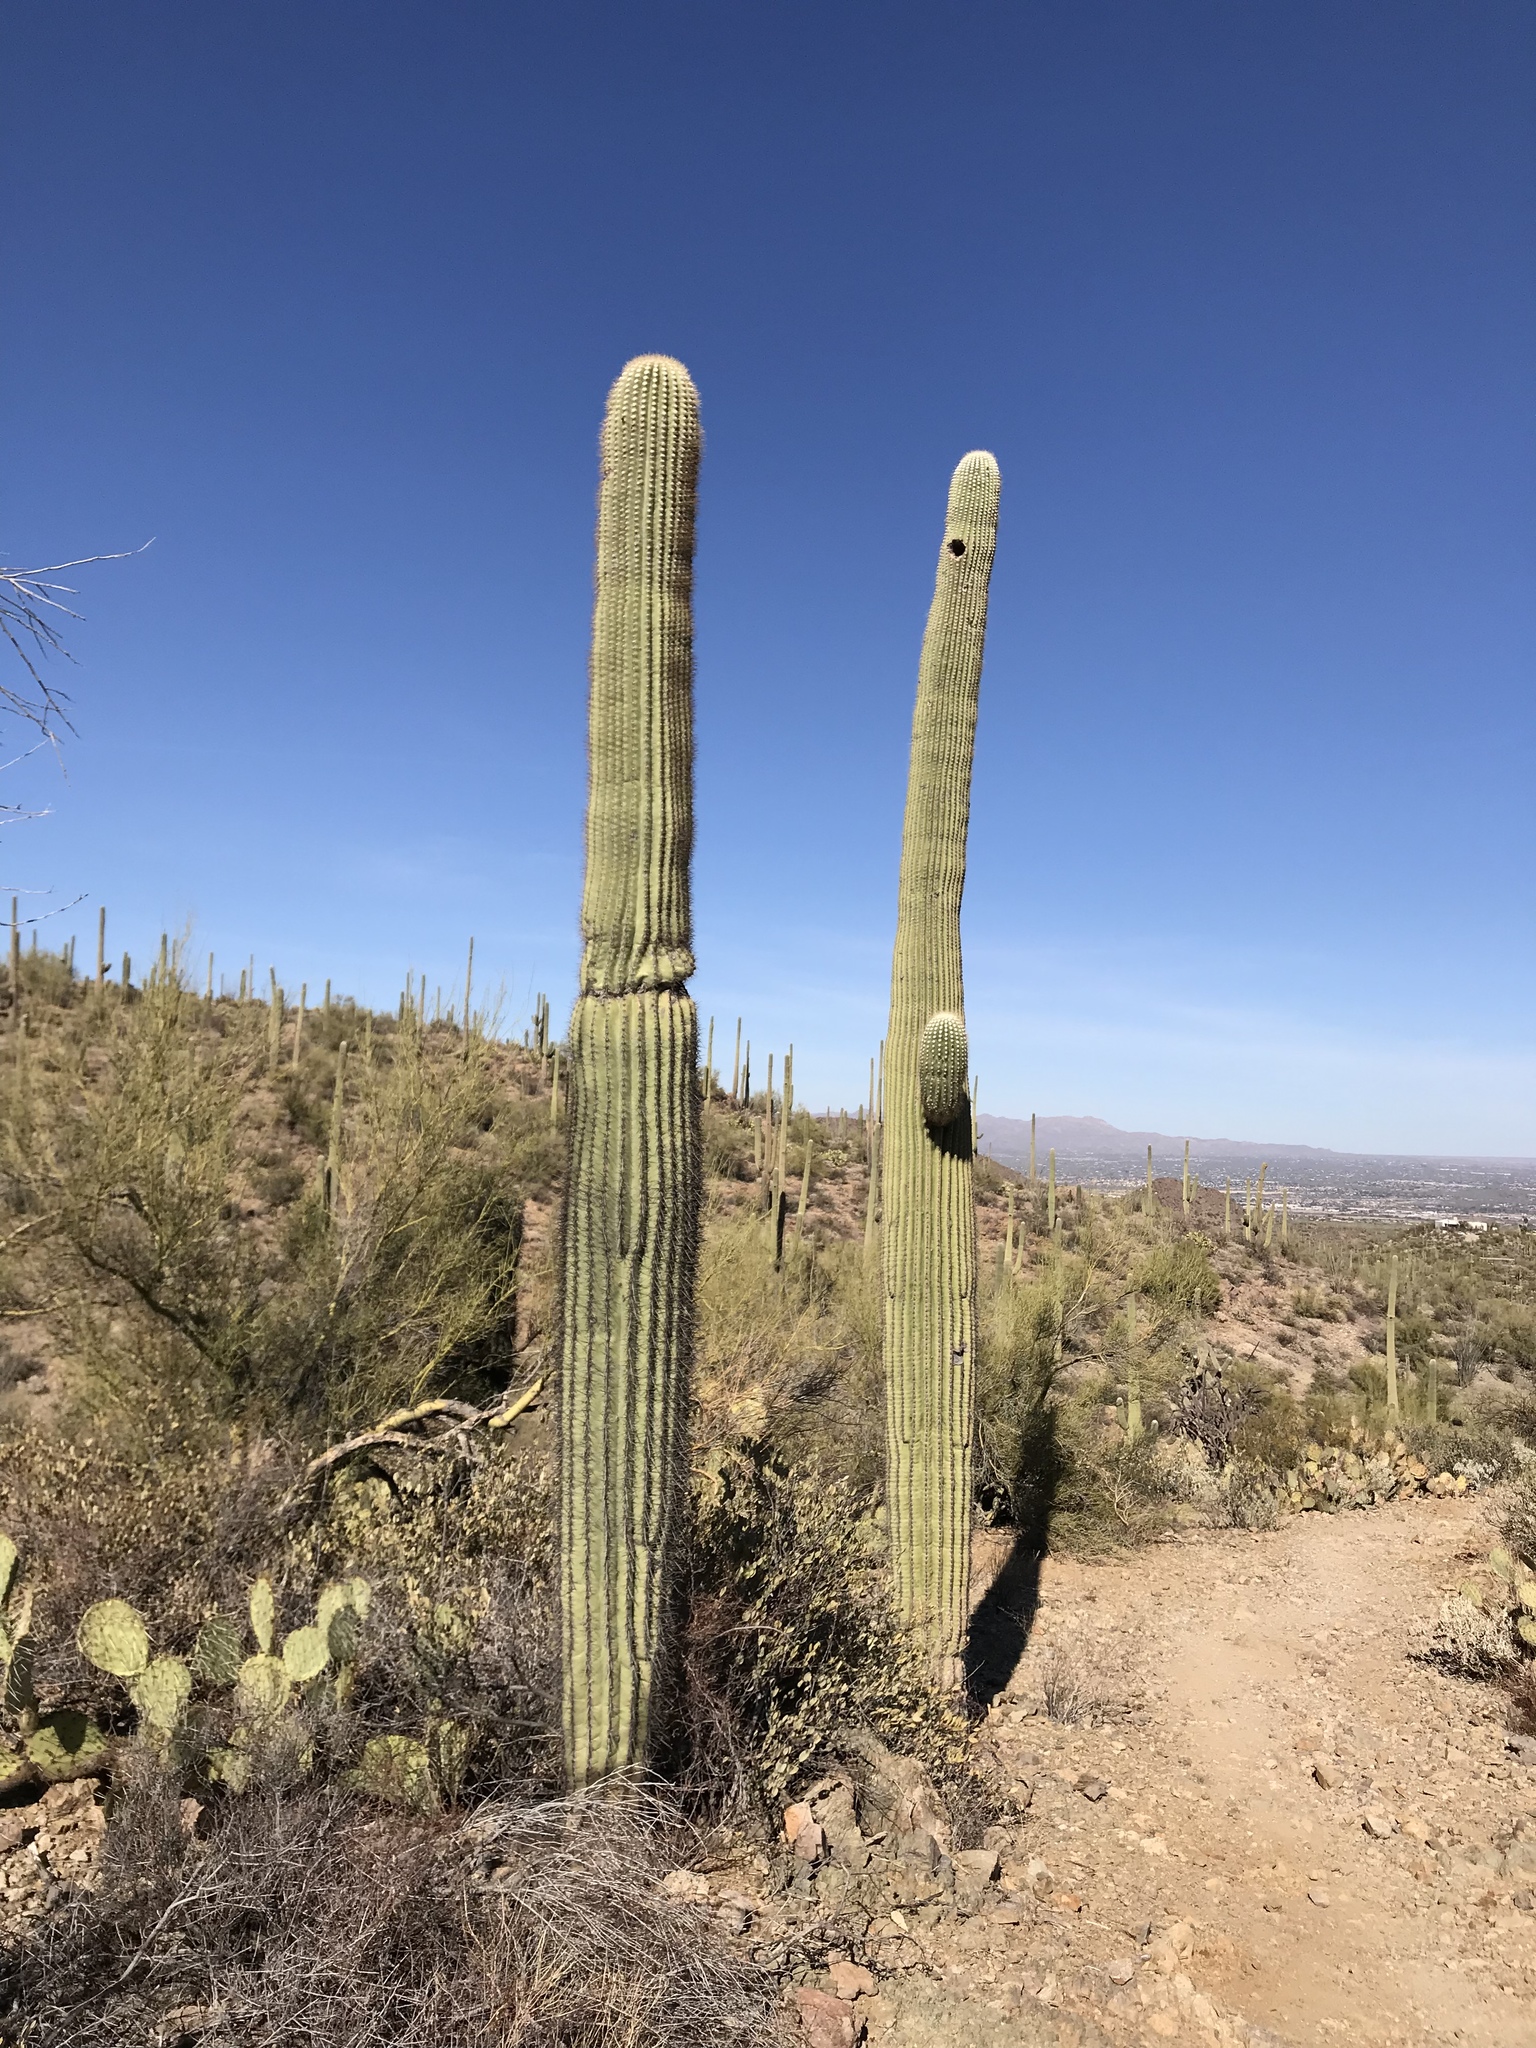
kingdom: Plantae
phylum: Tracheophyta
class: Magnoliopsida
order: Caryophyllales
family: Cactaceae
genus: Carnegiea
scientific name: Carnegiea gigantea
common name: Saguaro
